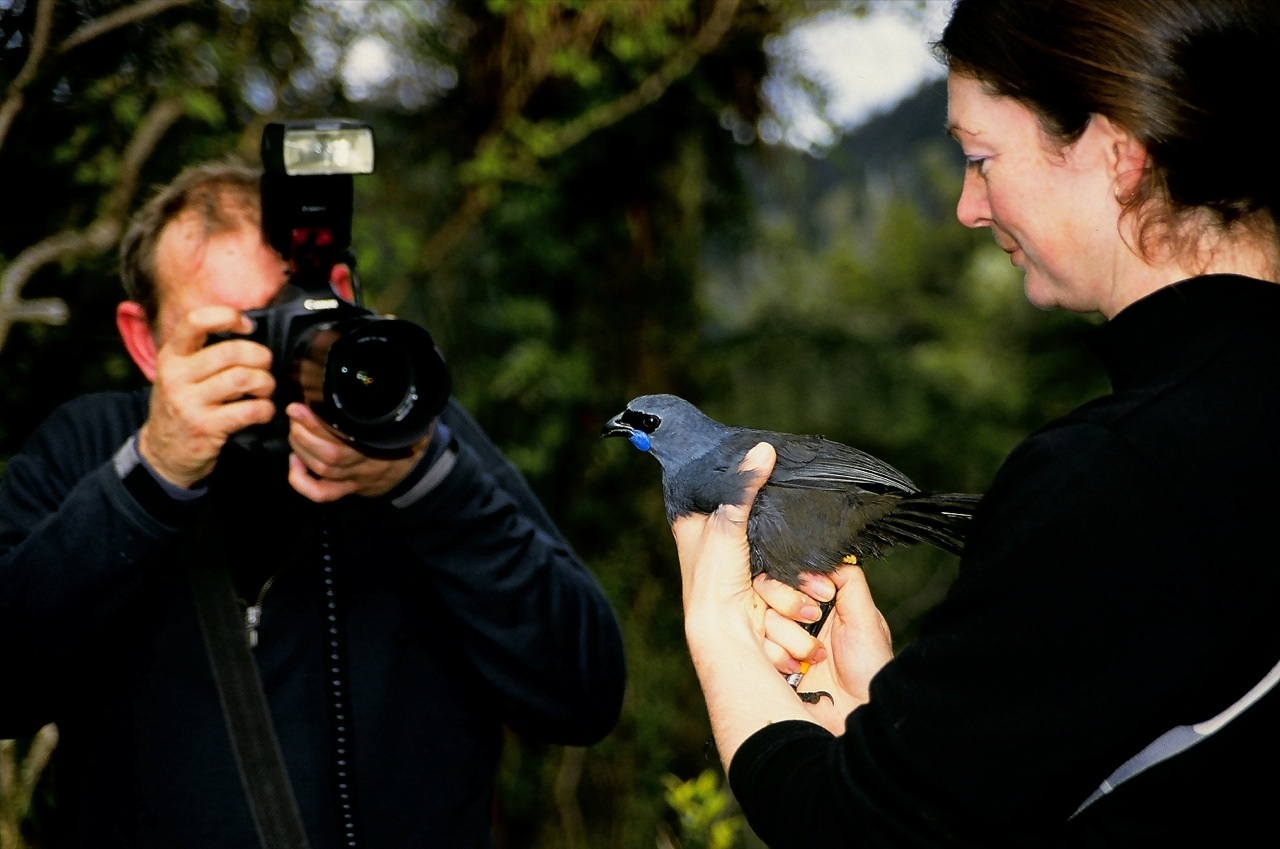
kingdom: Animalia
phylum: Chordata
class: Aves
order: Passeriformes
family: Callaeatidae
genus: Callaeas
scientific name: Callaeas cinereus
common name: South island kokako
